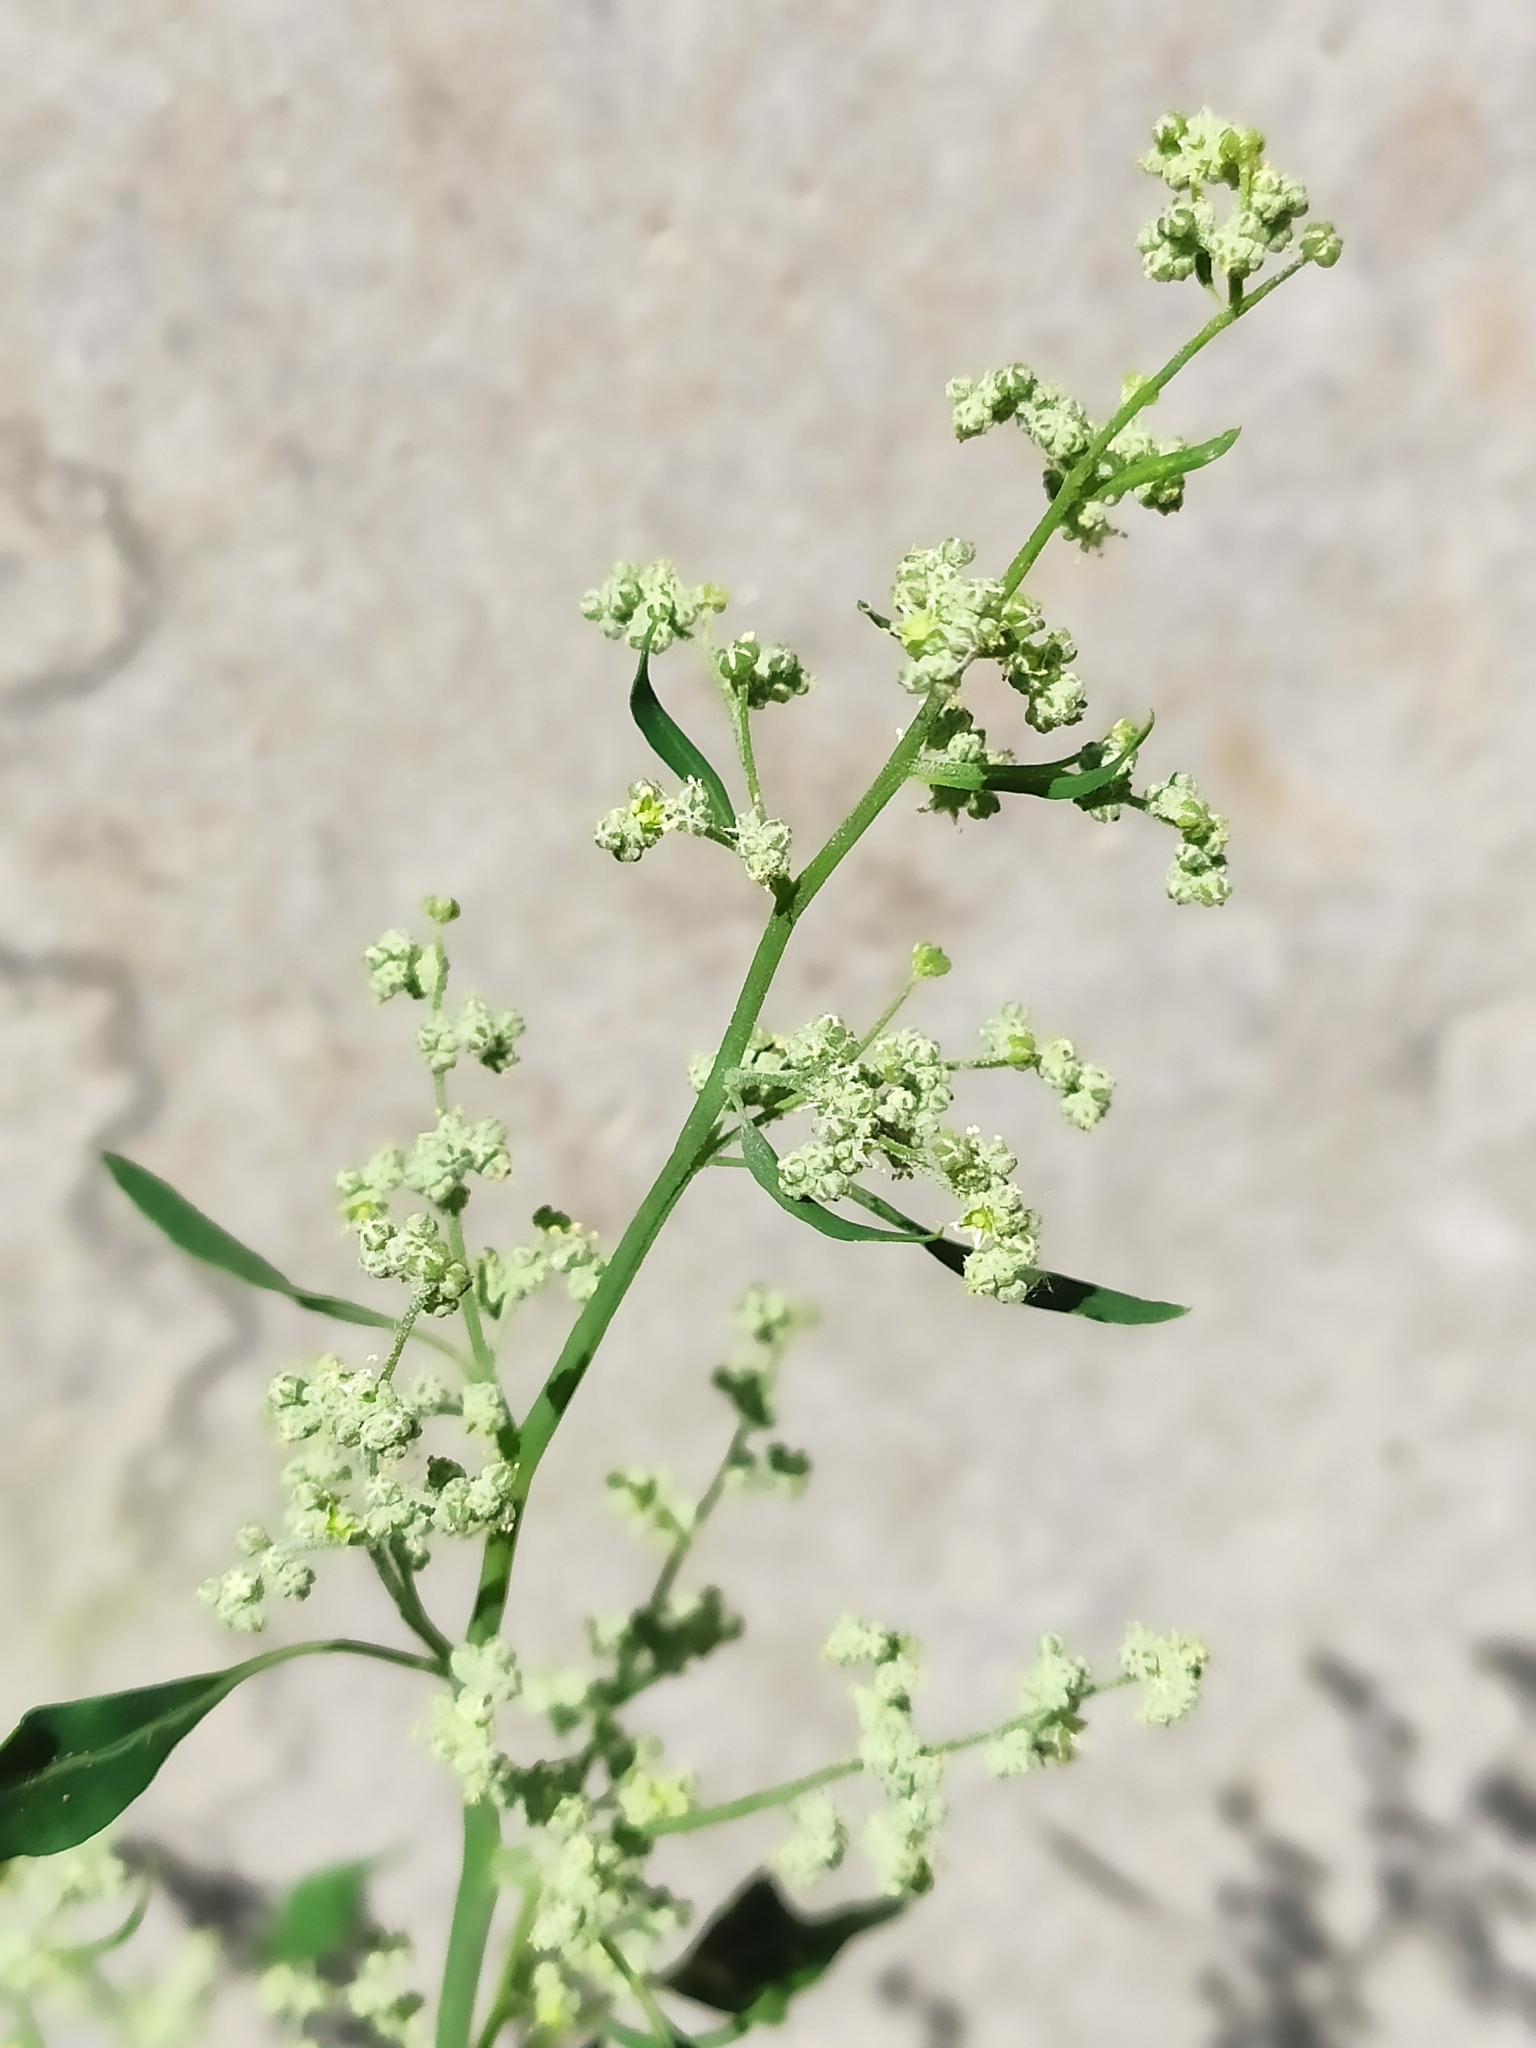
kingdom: Plantae
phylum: Tracheophyta
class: Magnoliopsida
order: Caryophyllales
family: Amaranthaceae
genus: Chenopodium
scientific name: Chenopodium album
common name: Fat-hen
